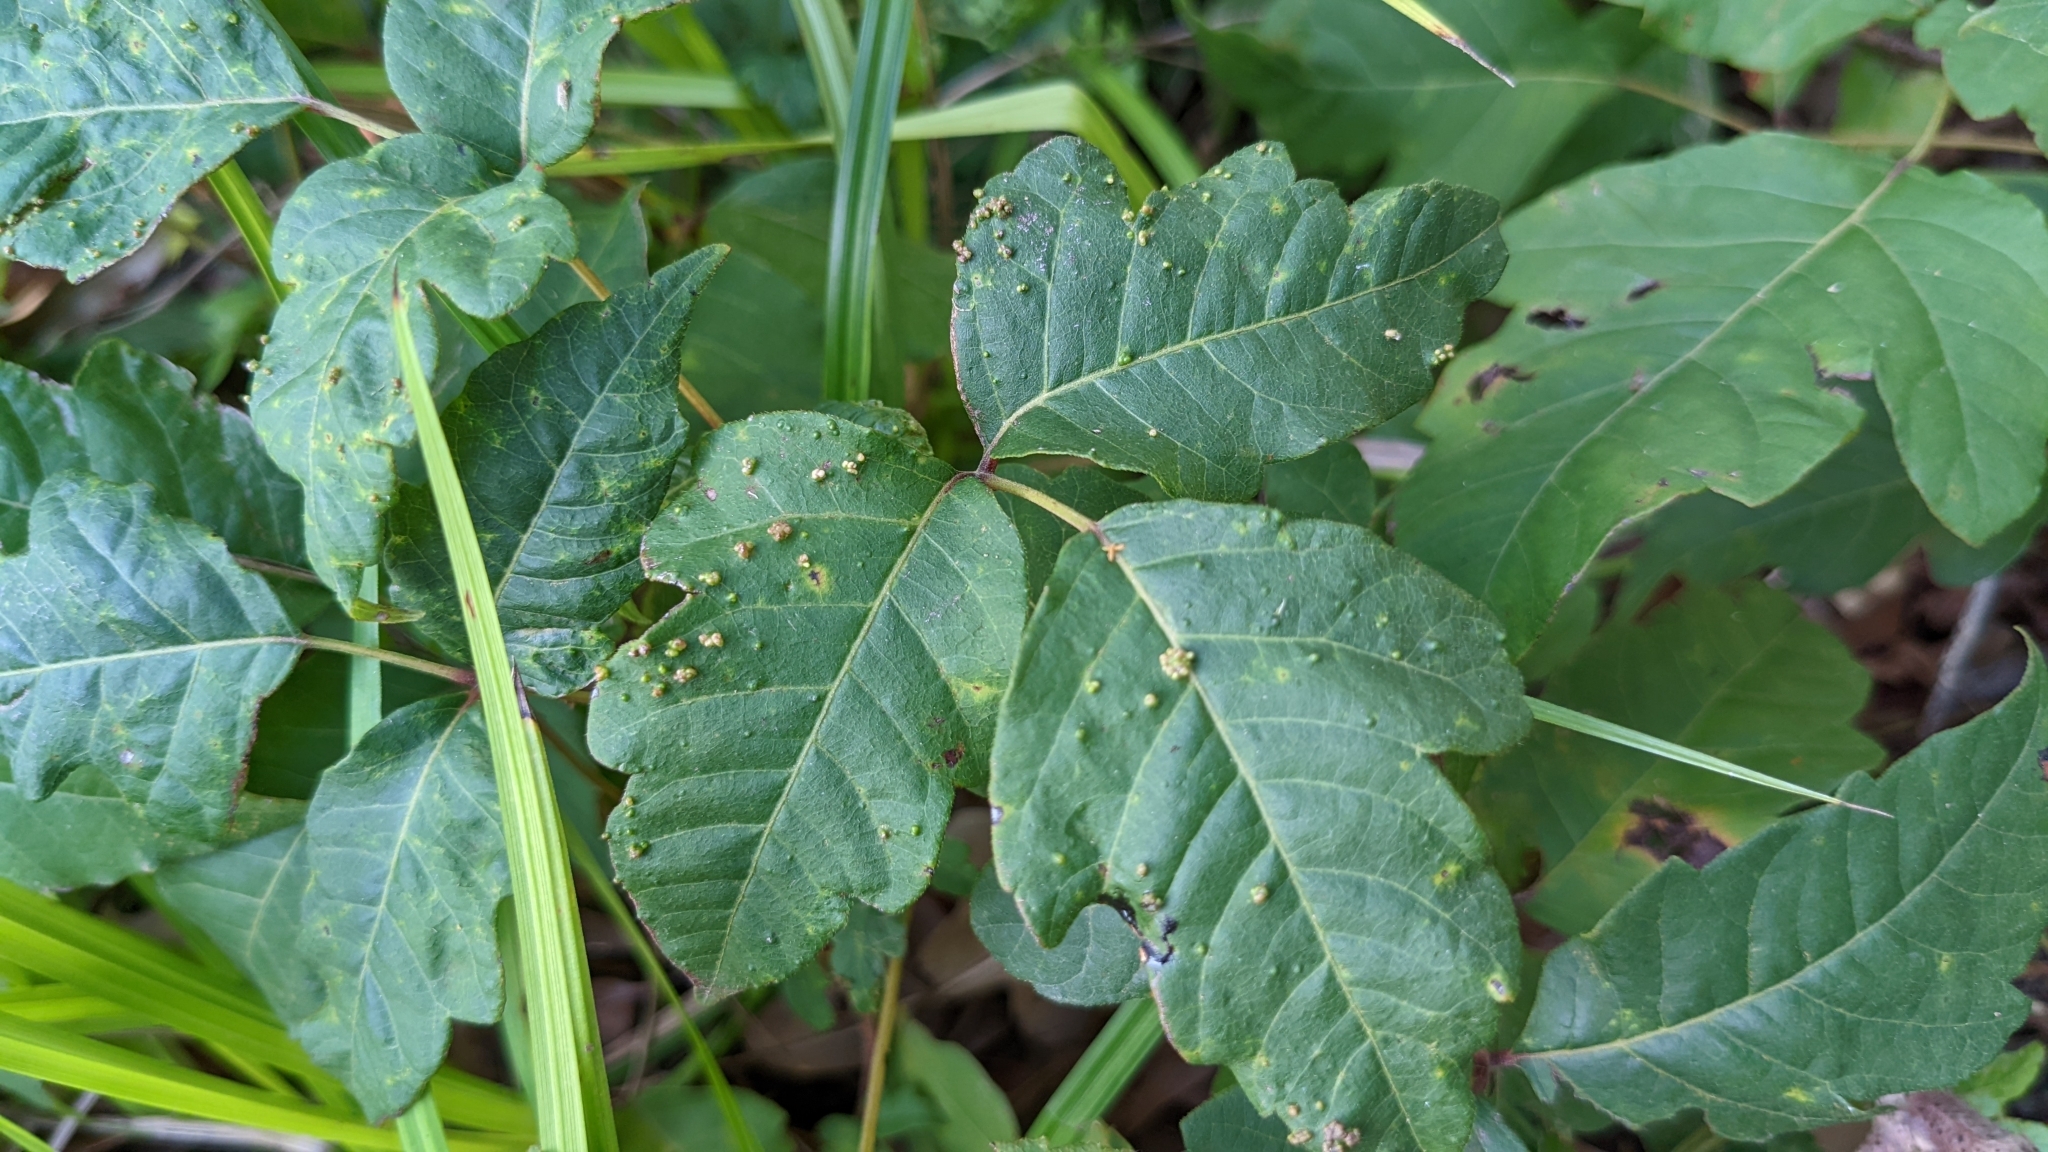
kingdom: Animalia
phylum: Arthropoda
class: Arachnida
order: Trombidiformes
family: Eriophyidae
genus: Aculops
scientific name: Aculops
